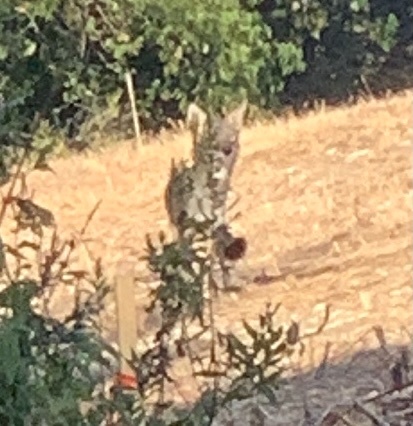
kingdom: Animalia
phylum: Chordata
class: Mammalia
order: Carnivora
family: Canidae
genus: Canis
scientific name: Canis latrans
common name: Coyote
